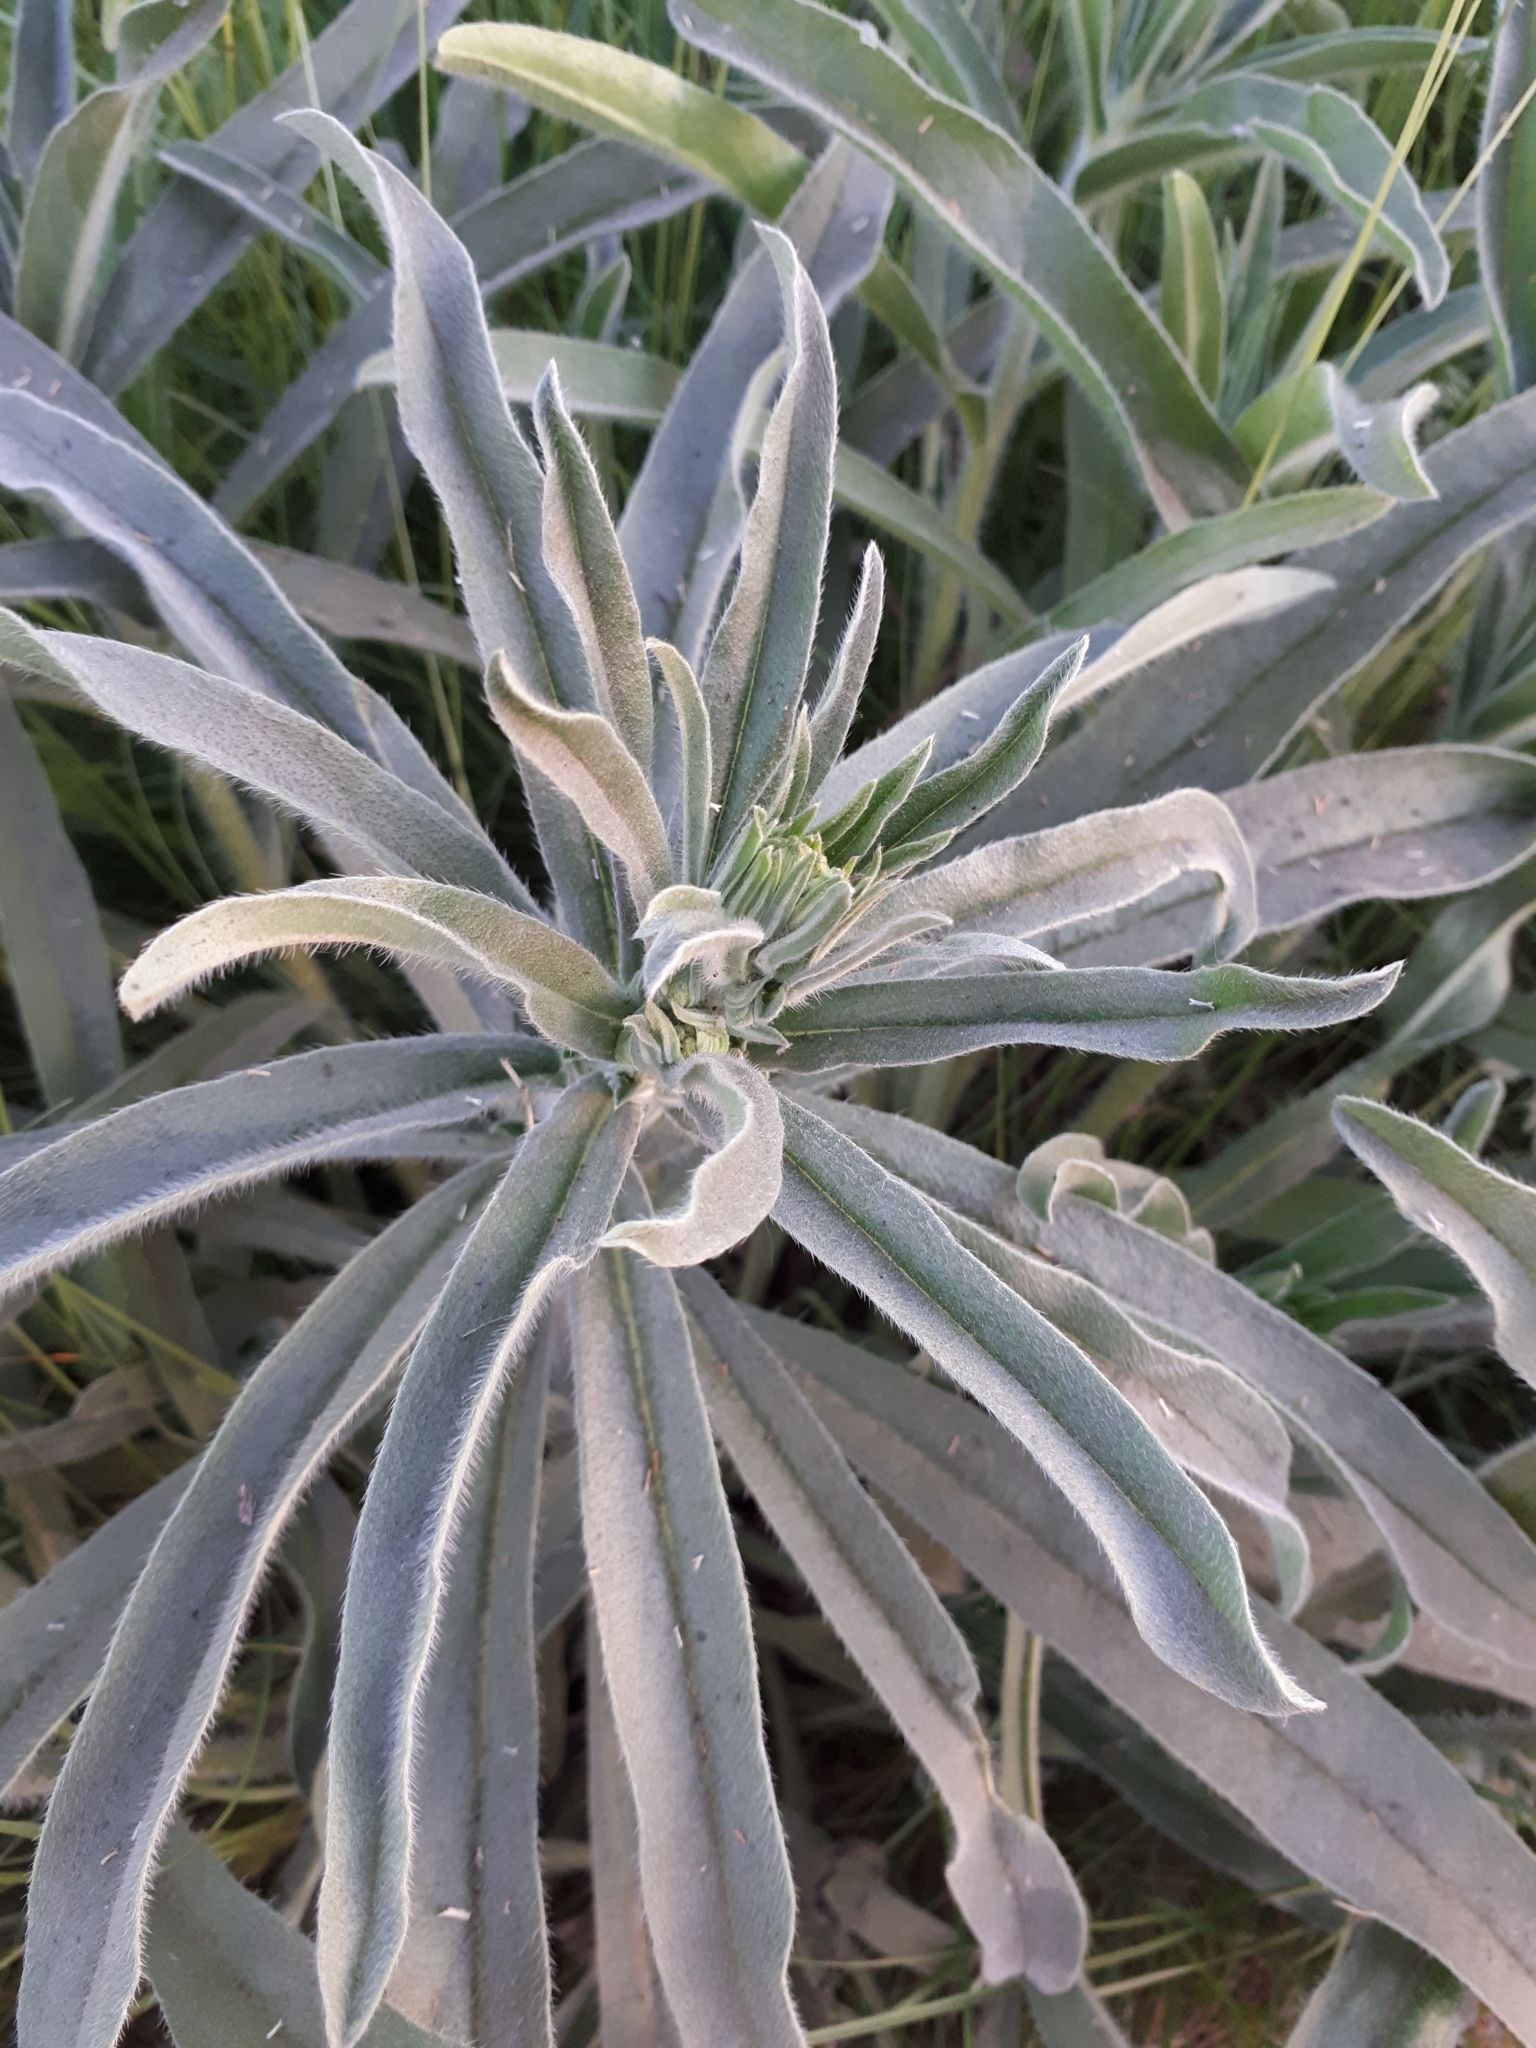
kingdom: Plantae
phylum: Tracheophyta
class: Magnoliopsida
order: Boraginales
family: Boraginaceae
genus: Echium
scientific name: Echium vulgare
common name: Common viper's bugloss
